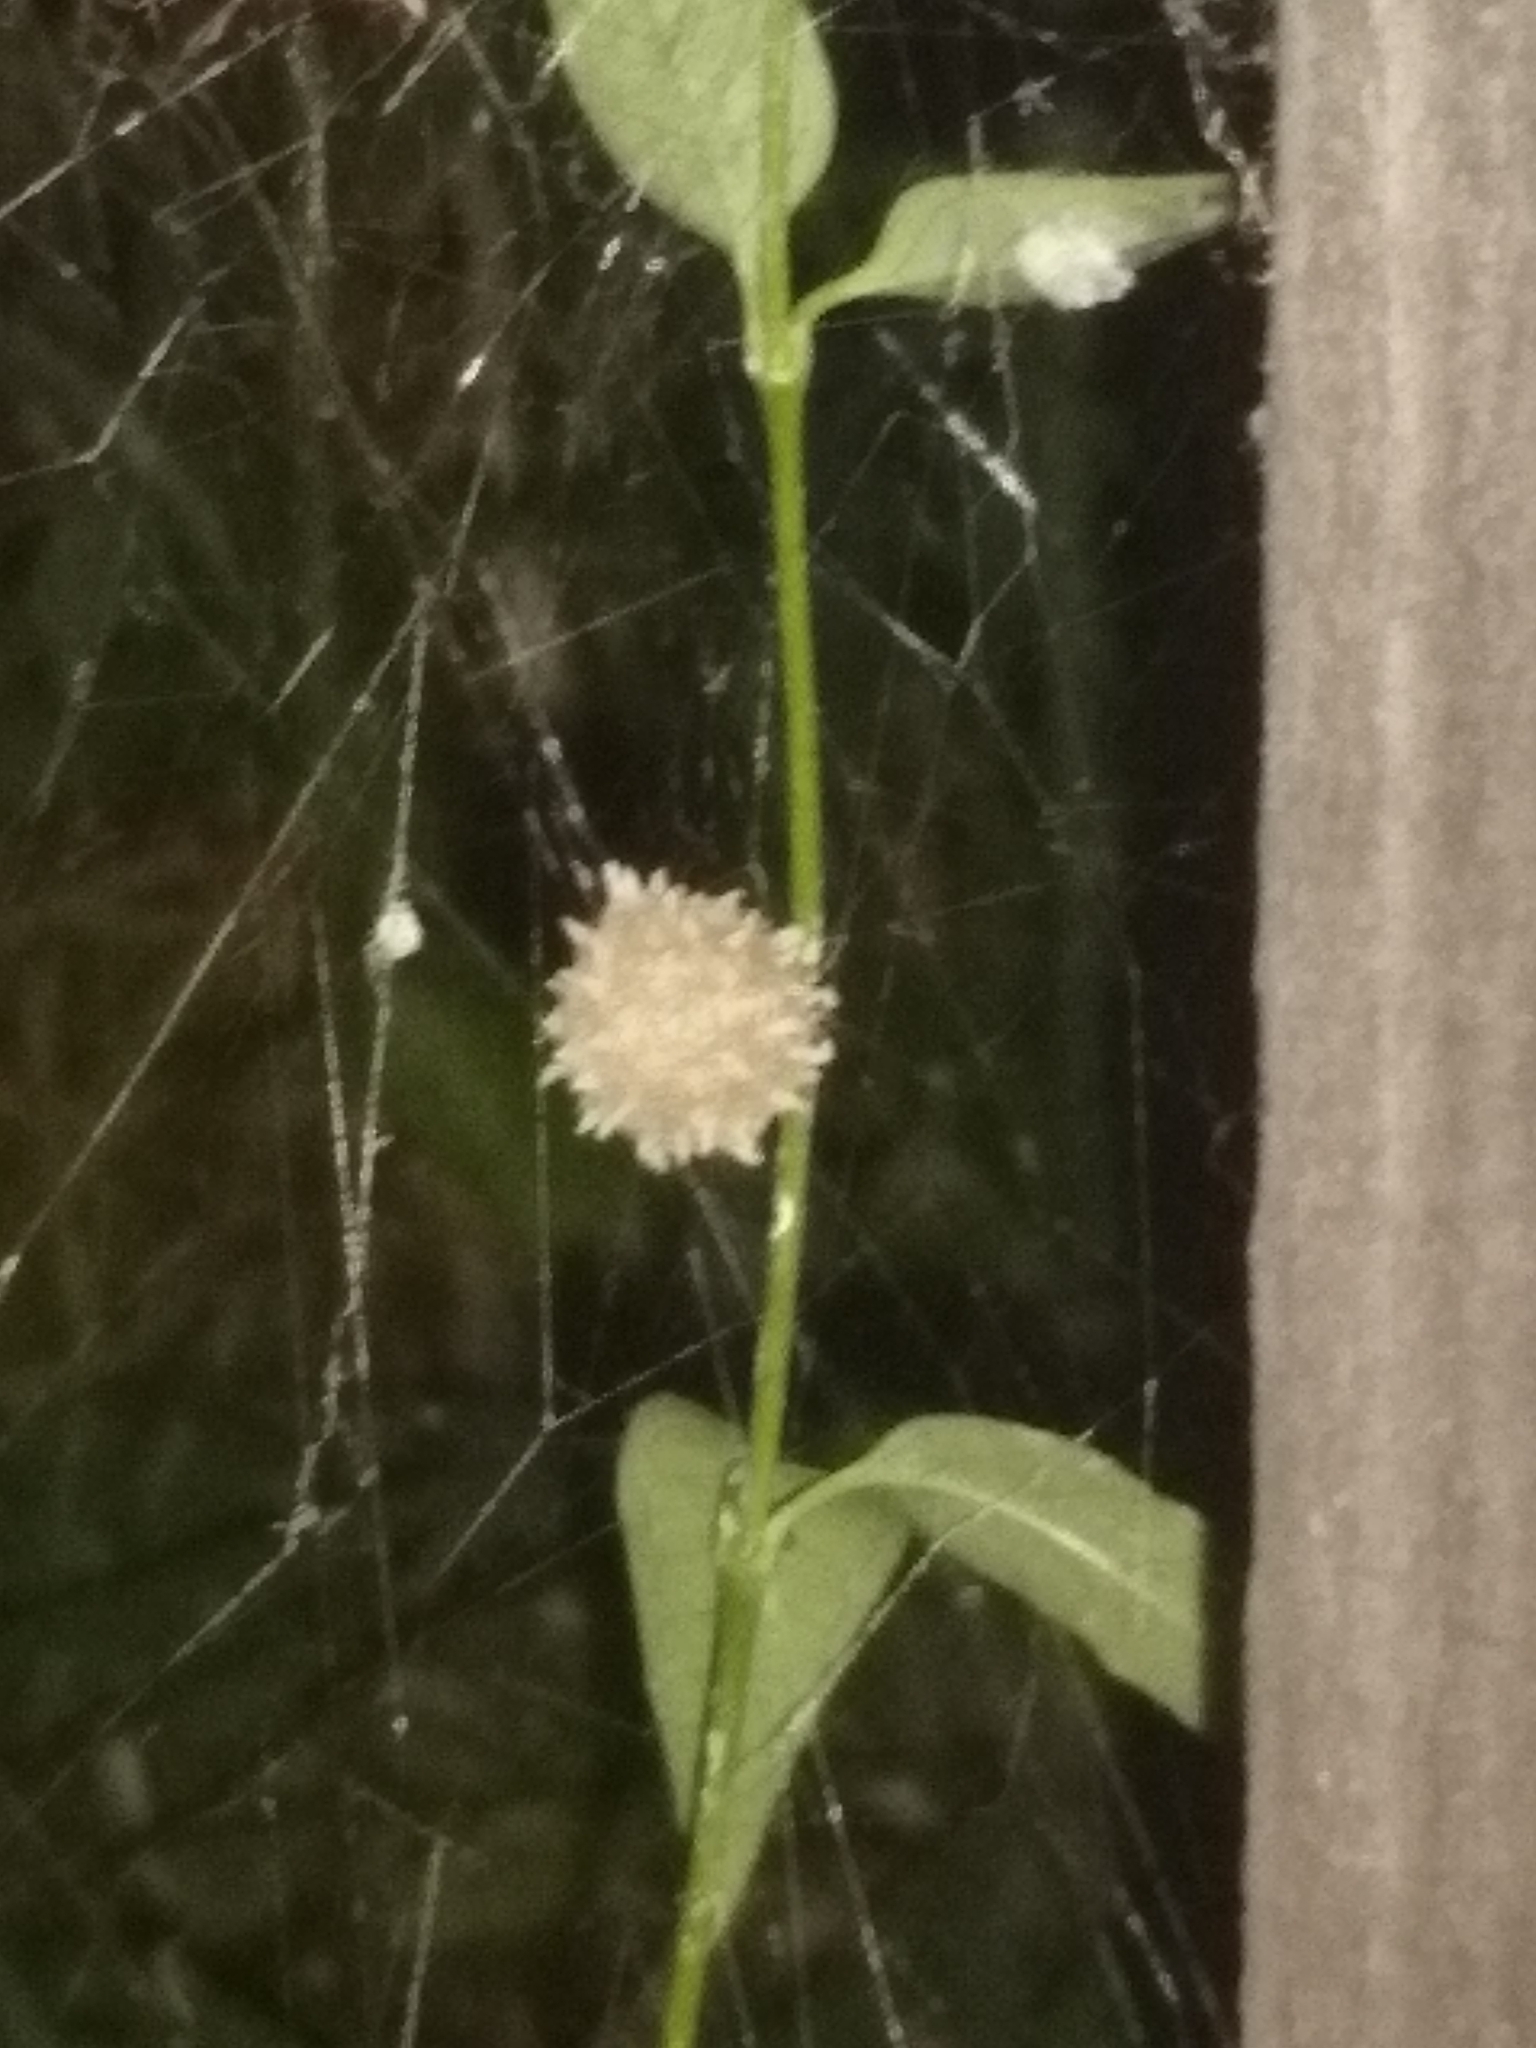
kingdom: Animalia
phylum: Arthropoda
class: Arachnida
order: Araneae
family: Theridiidae
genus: Latrodectus
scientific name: Latrodectus geometricus
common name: Brown widow spider
